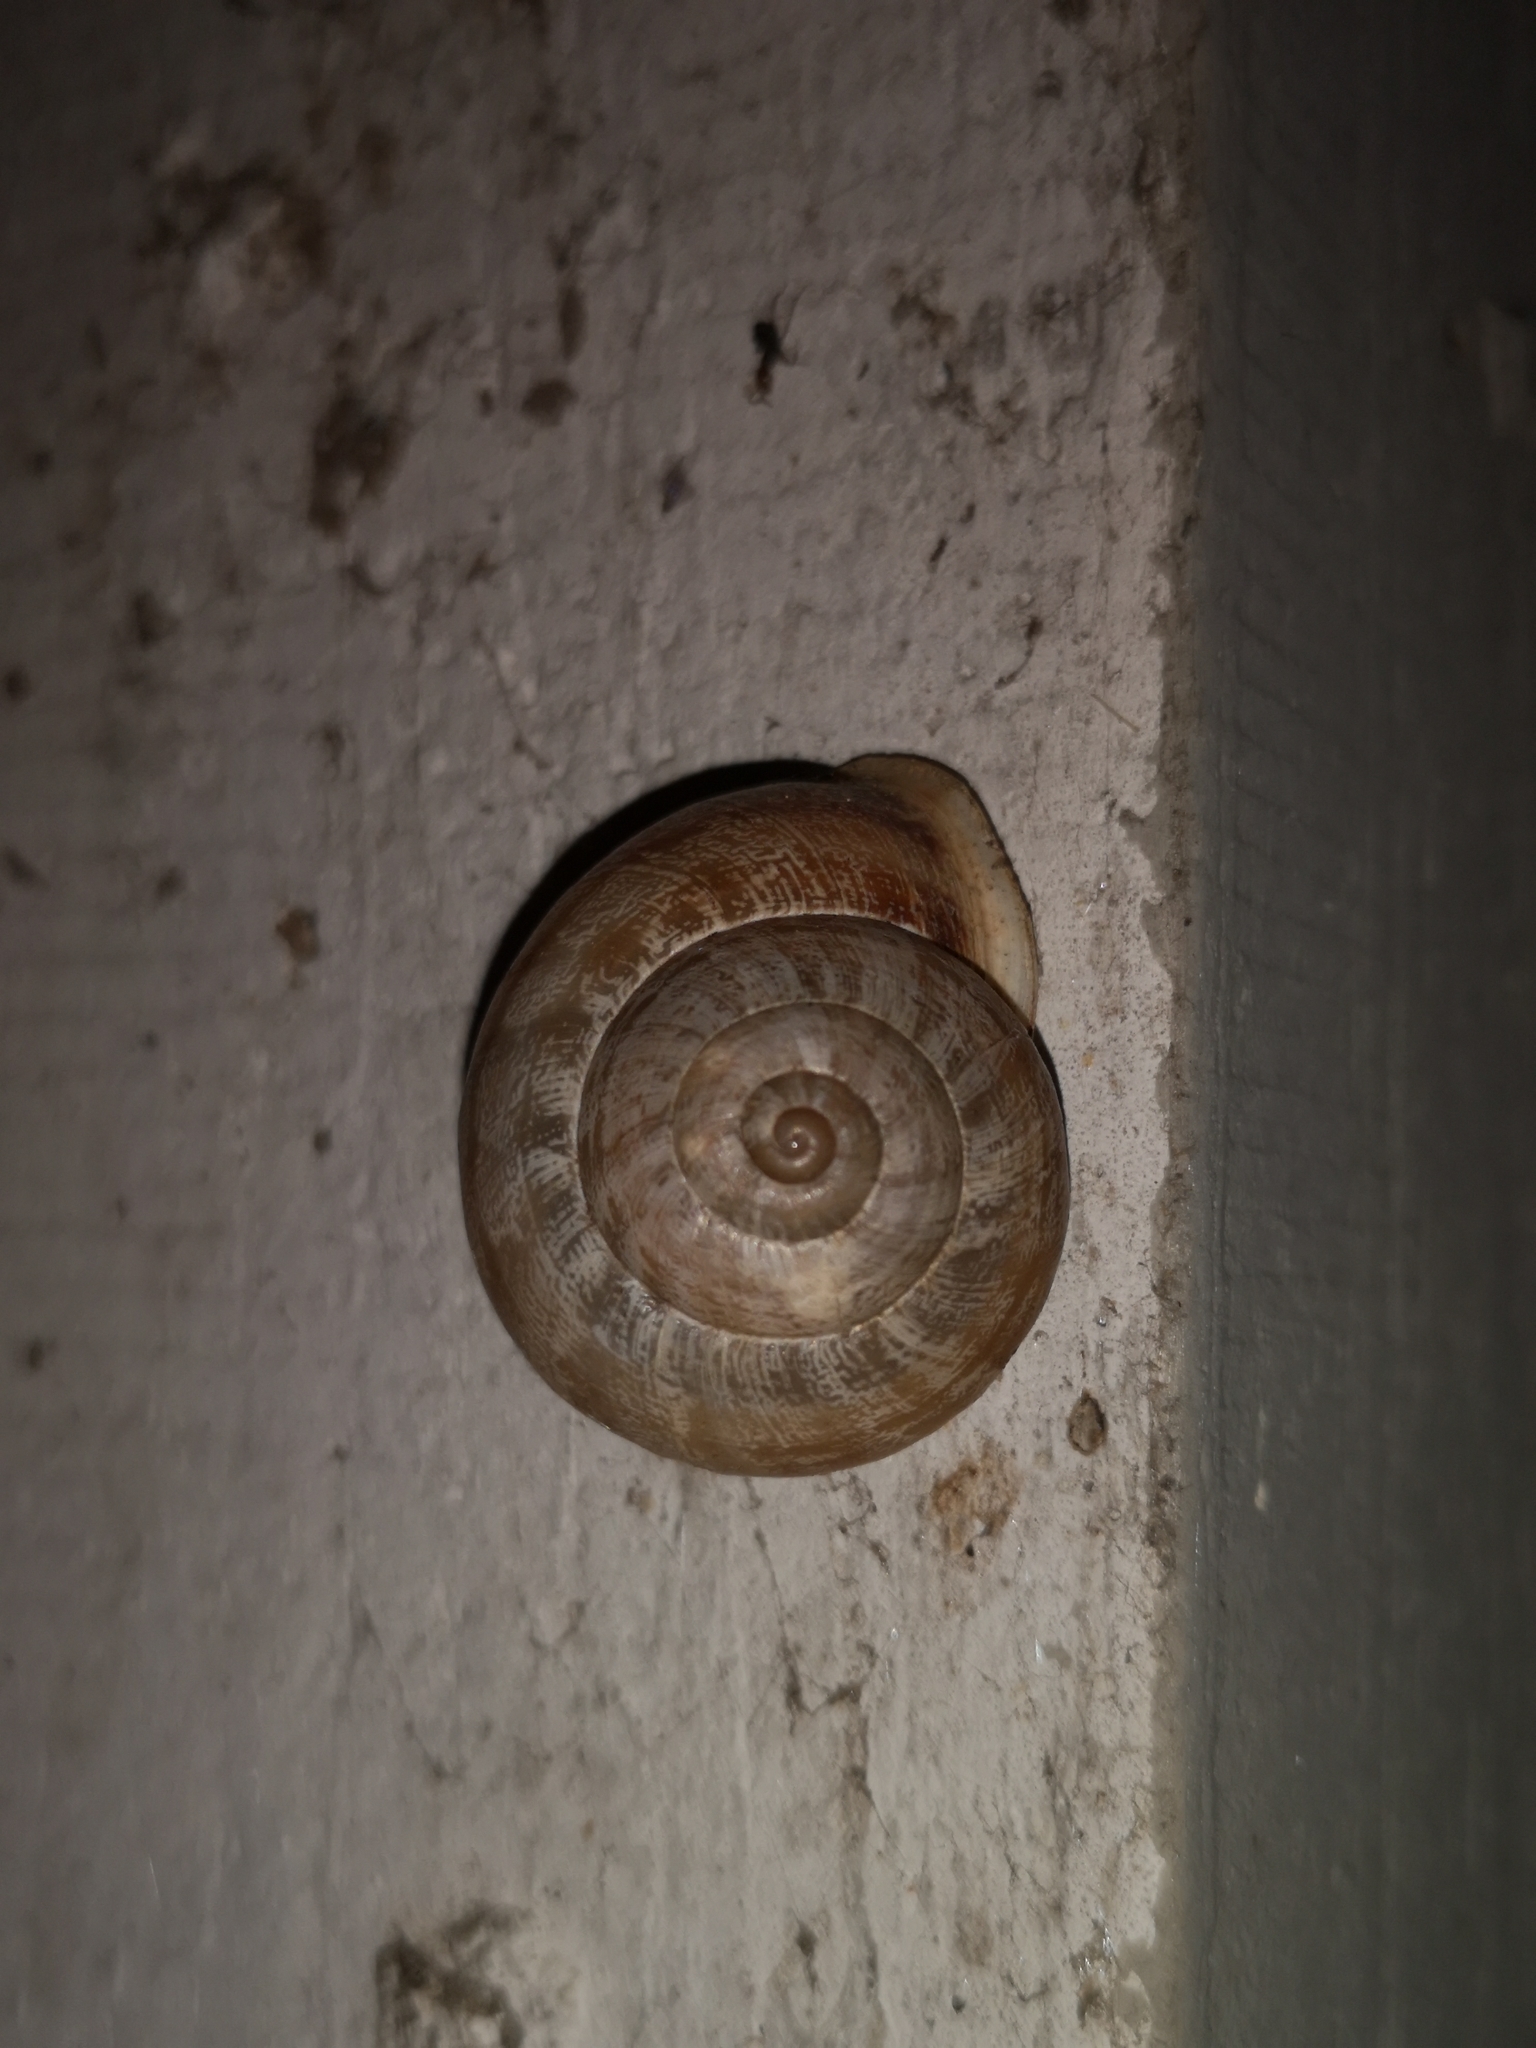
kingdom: Animalia
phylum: Mollusca
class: Gastropoda
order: Stylommatophora
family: Helicidae
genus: Eobania
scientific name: Eobania vermiculata
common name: Chocolateband snail
